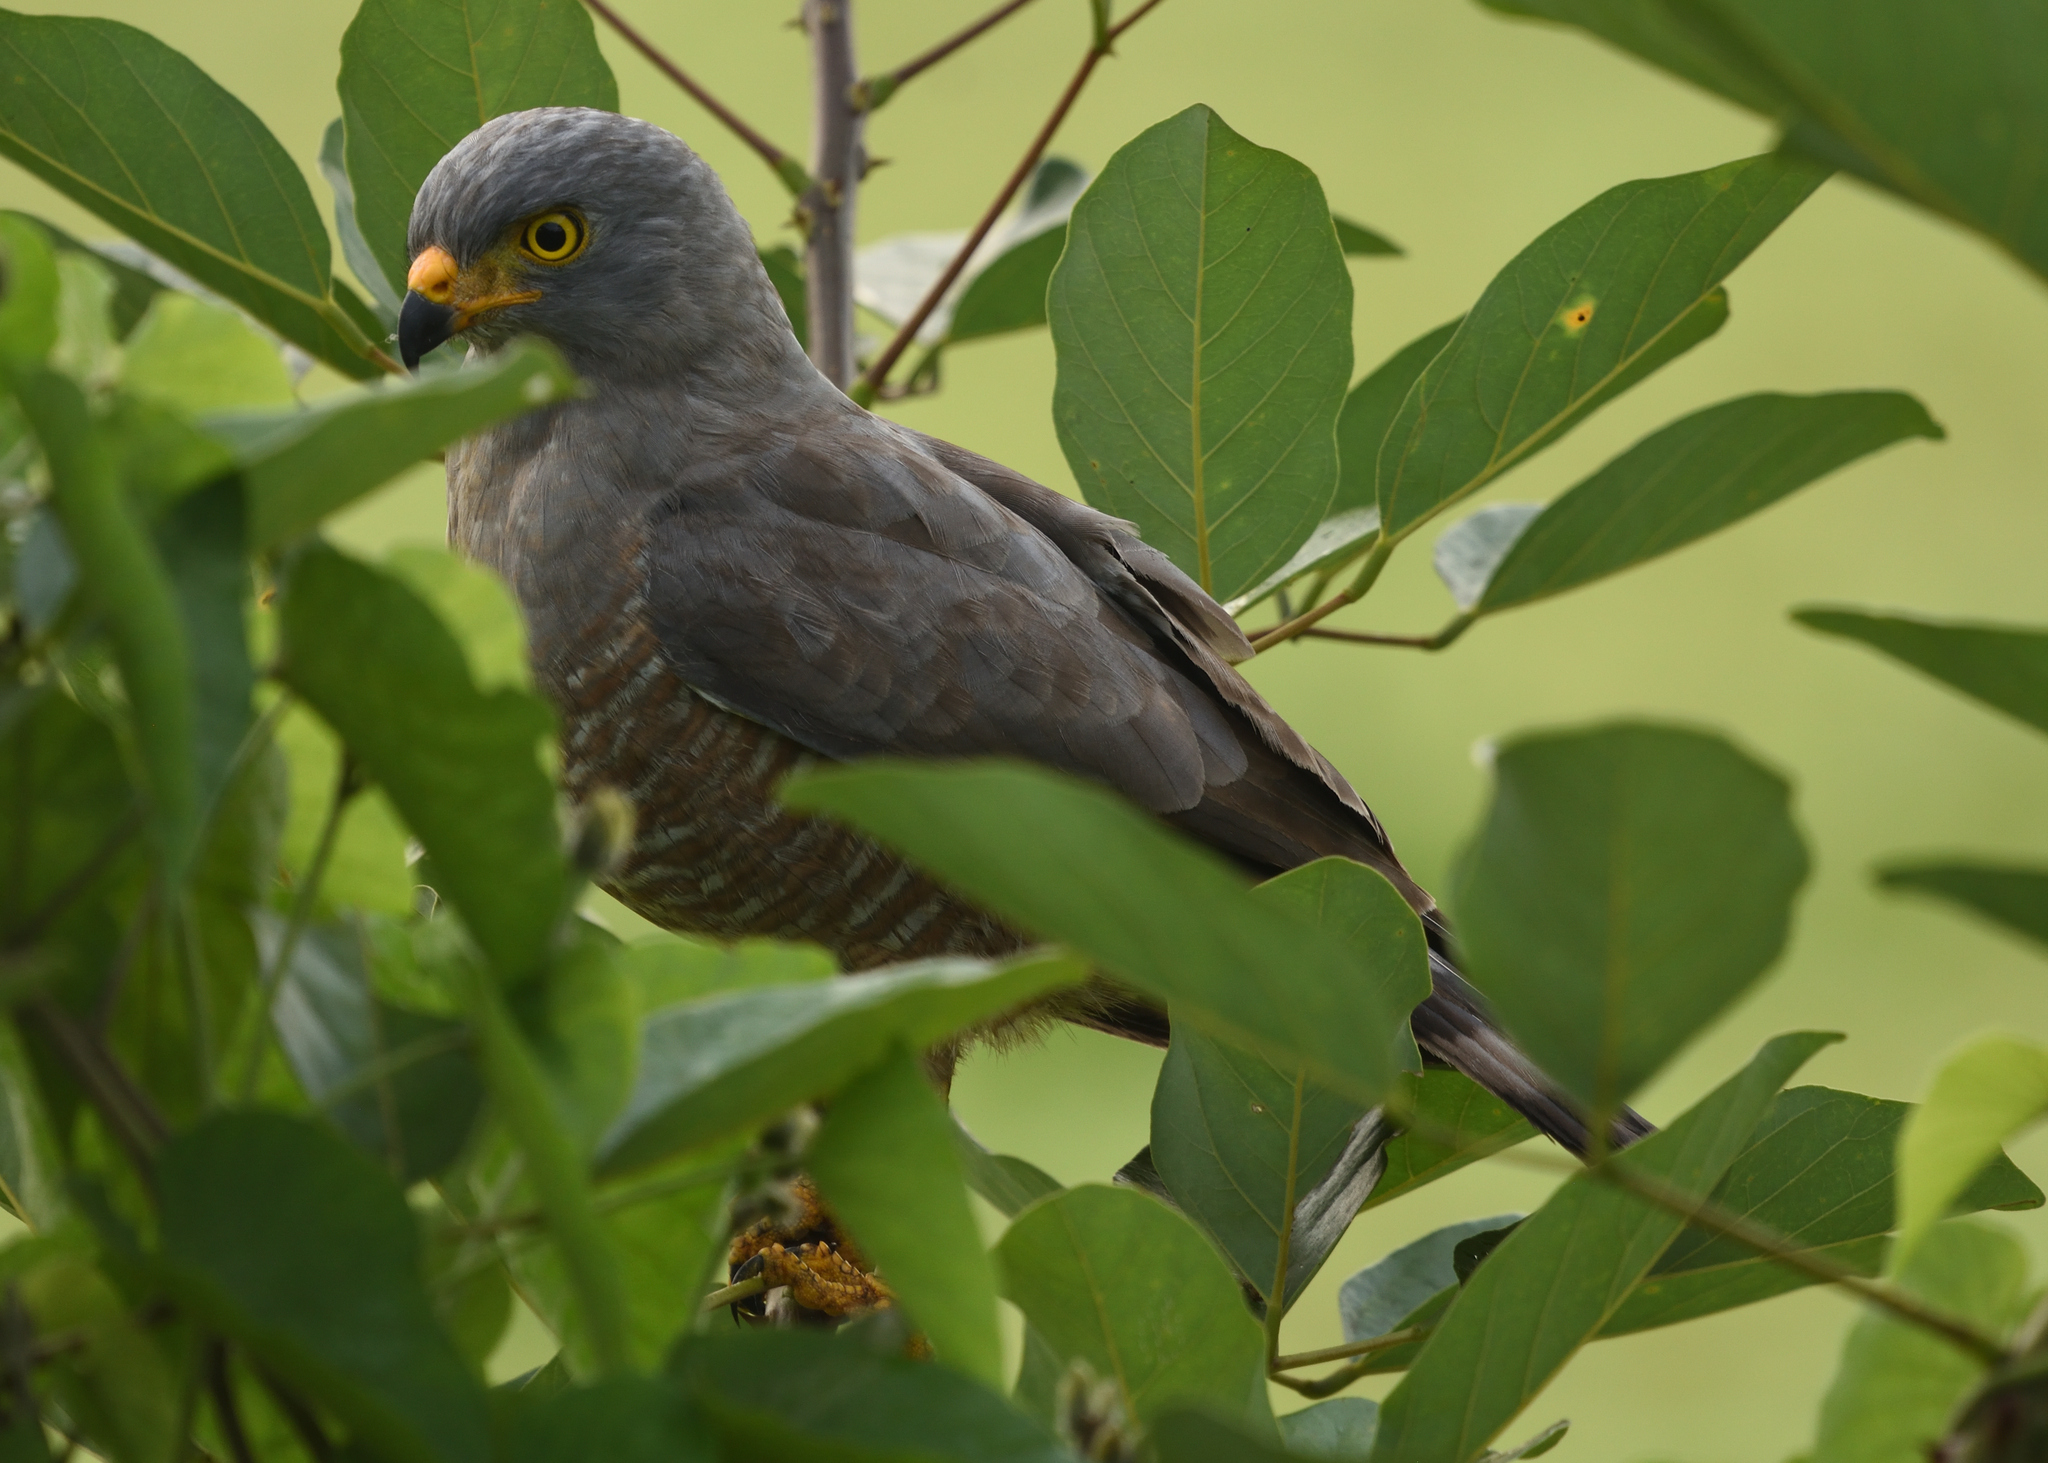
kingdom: Animalia
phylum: Chordata
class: Aves
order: Accipitriformes
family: Accipitridae
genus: Rupornis
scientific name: Rupornis magnirostris
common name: Roadside hawk
